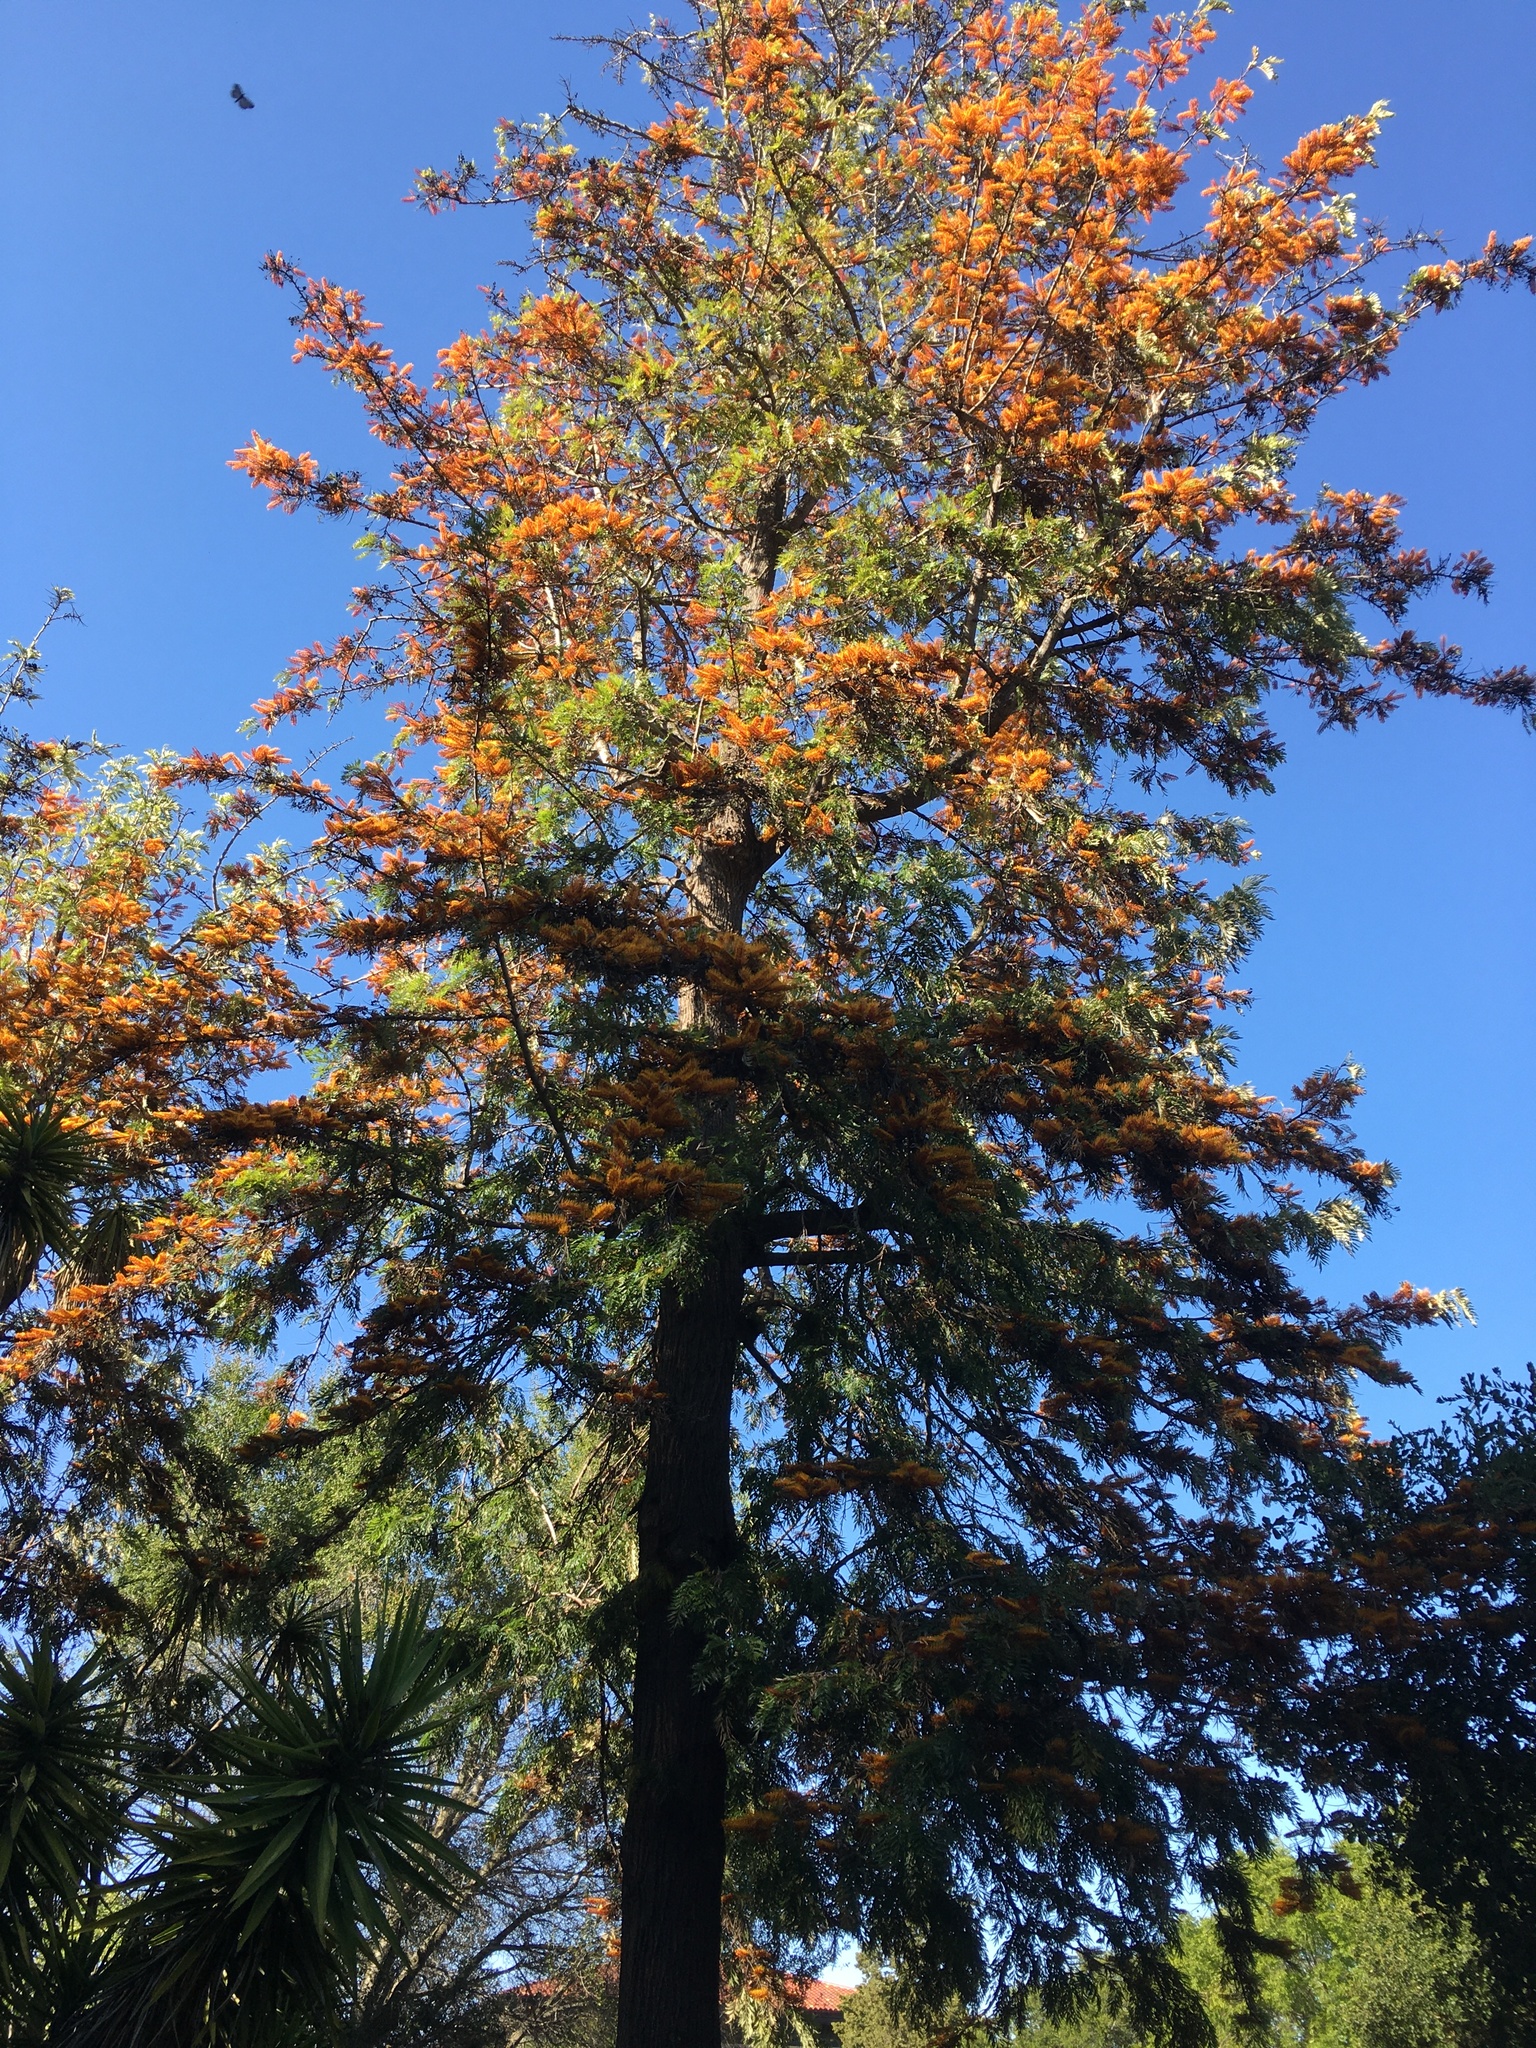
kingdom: Plantae
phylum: Tracheophyta
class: Pinopsida
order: Pinales
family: Cupressaceae
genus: Sequoia
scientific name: Sequoia sempervirens
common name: Coast redwood
